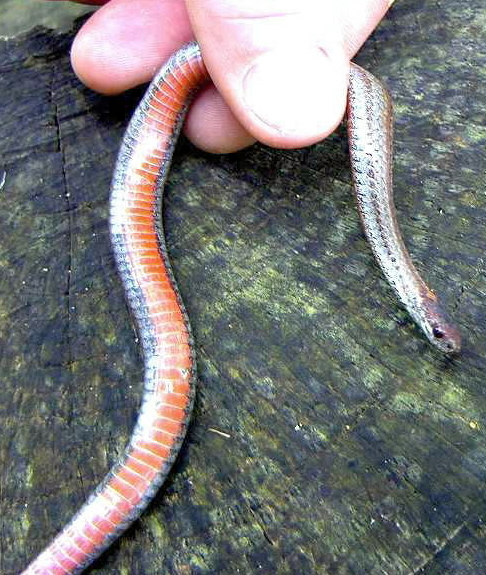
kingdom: Animalia
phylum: Chordata
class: Squamata
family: Colubridae
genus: Storeria
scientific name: Storeria occipitomaculata
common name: Redbelly snake
